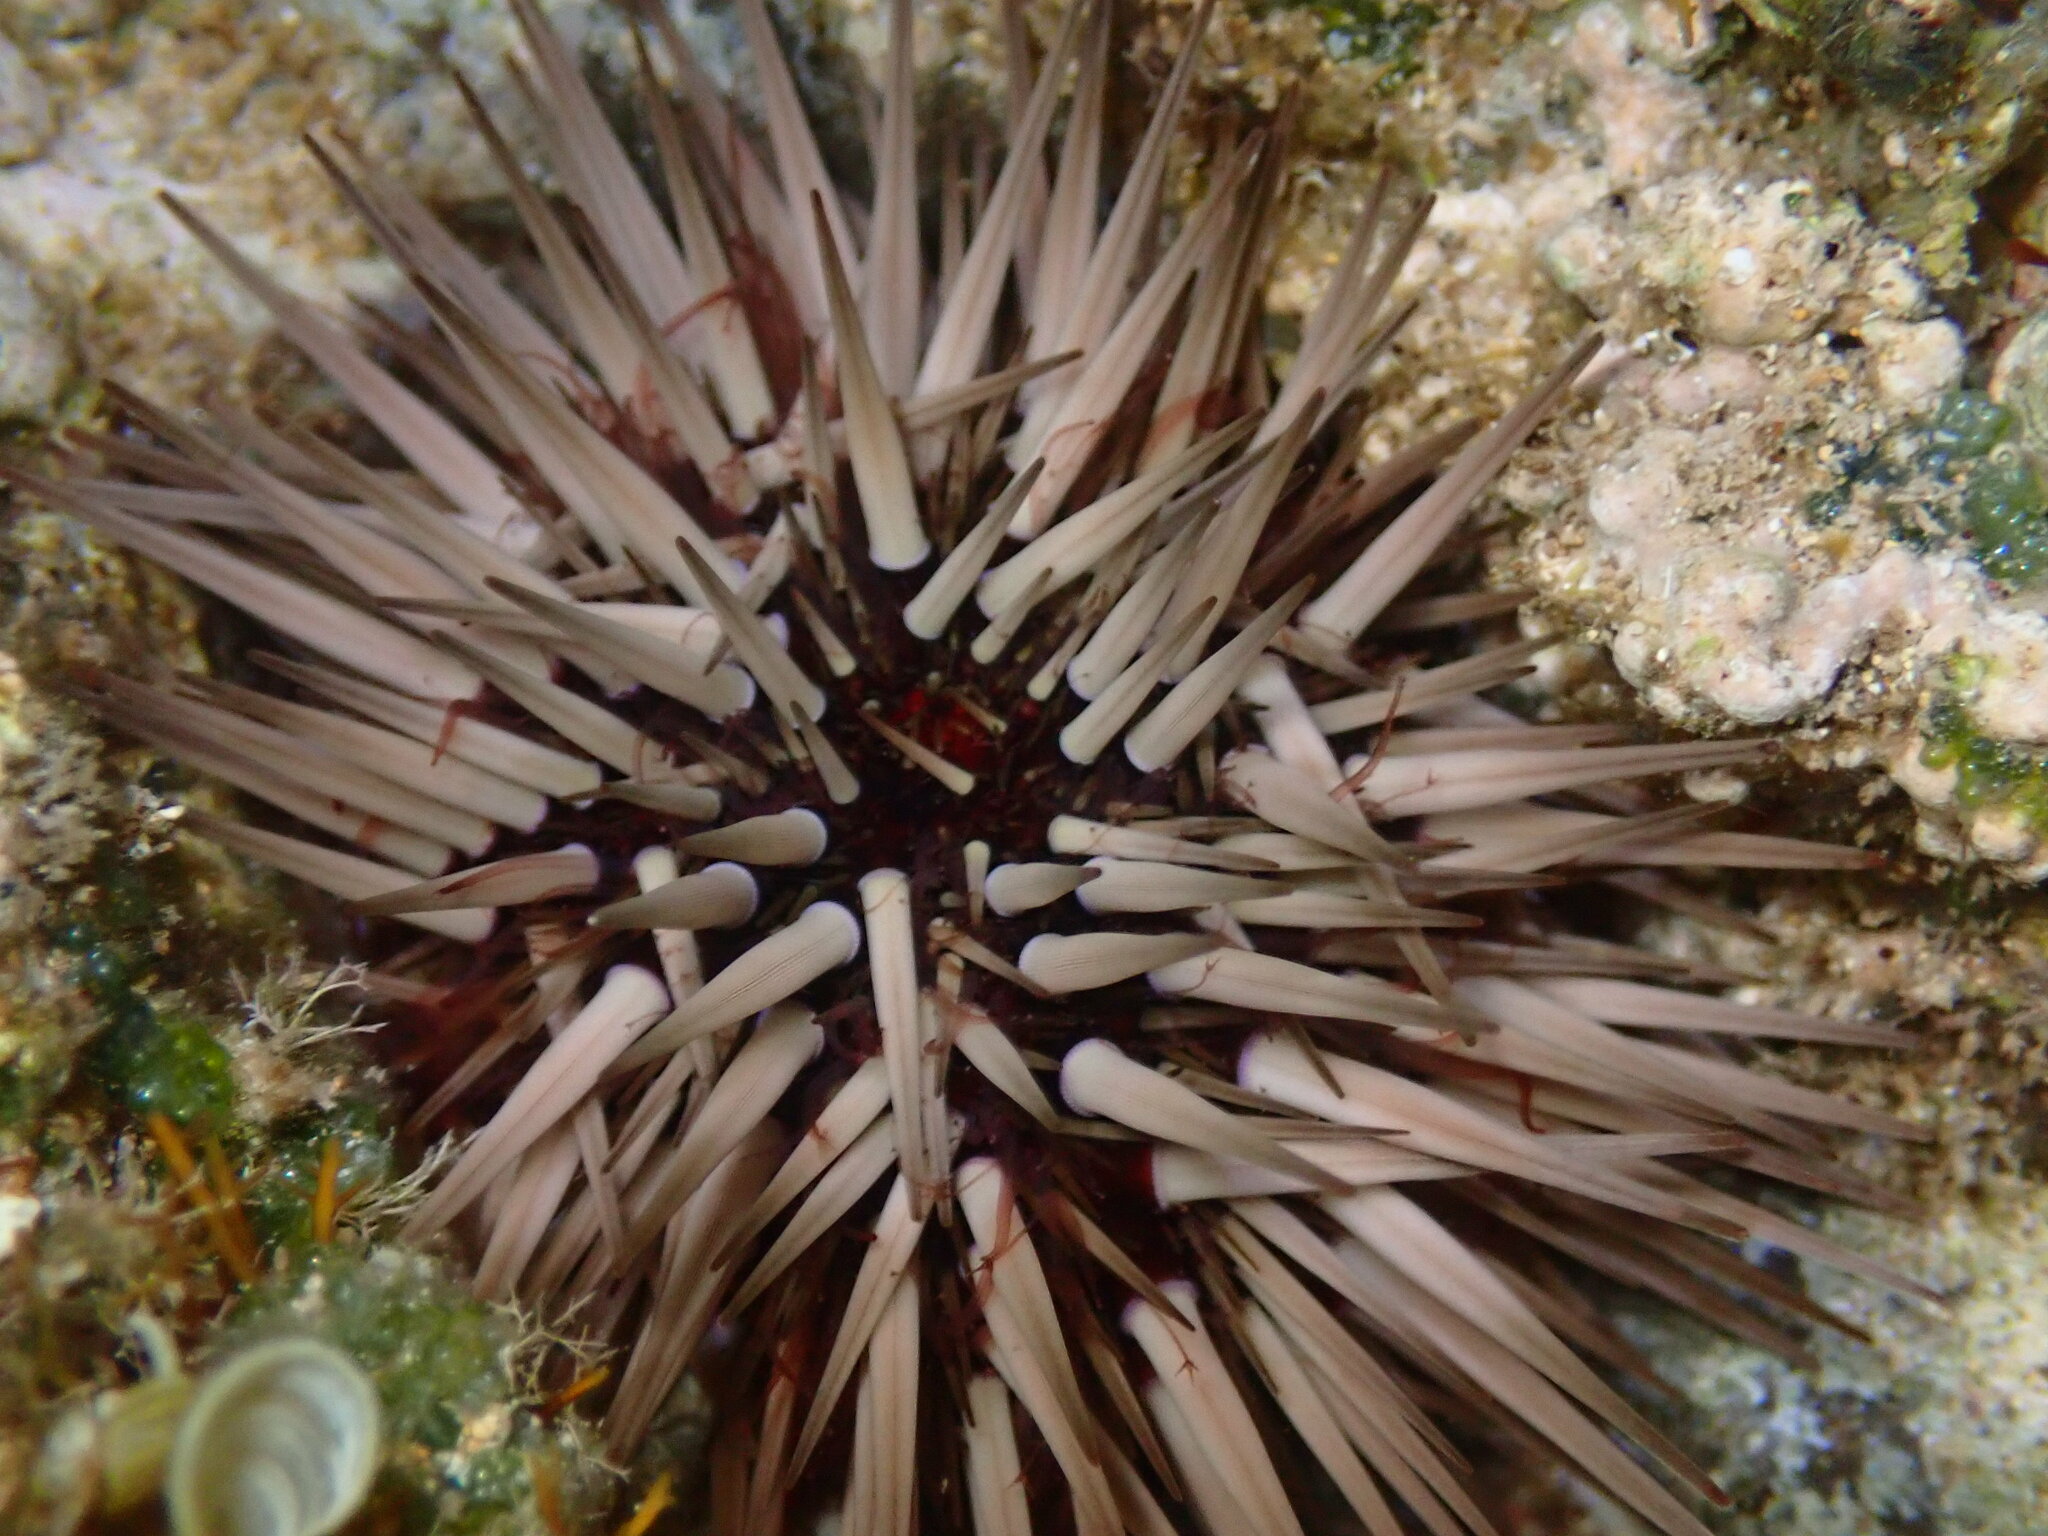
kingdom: Animalia
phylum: Echinodermata
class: Echinoidea
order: Camarodonta
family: Echinometridae
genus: Echinometra
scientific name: Echinometra mathaei
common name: Rock-boring urchin
